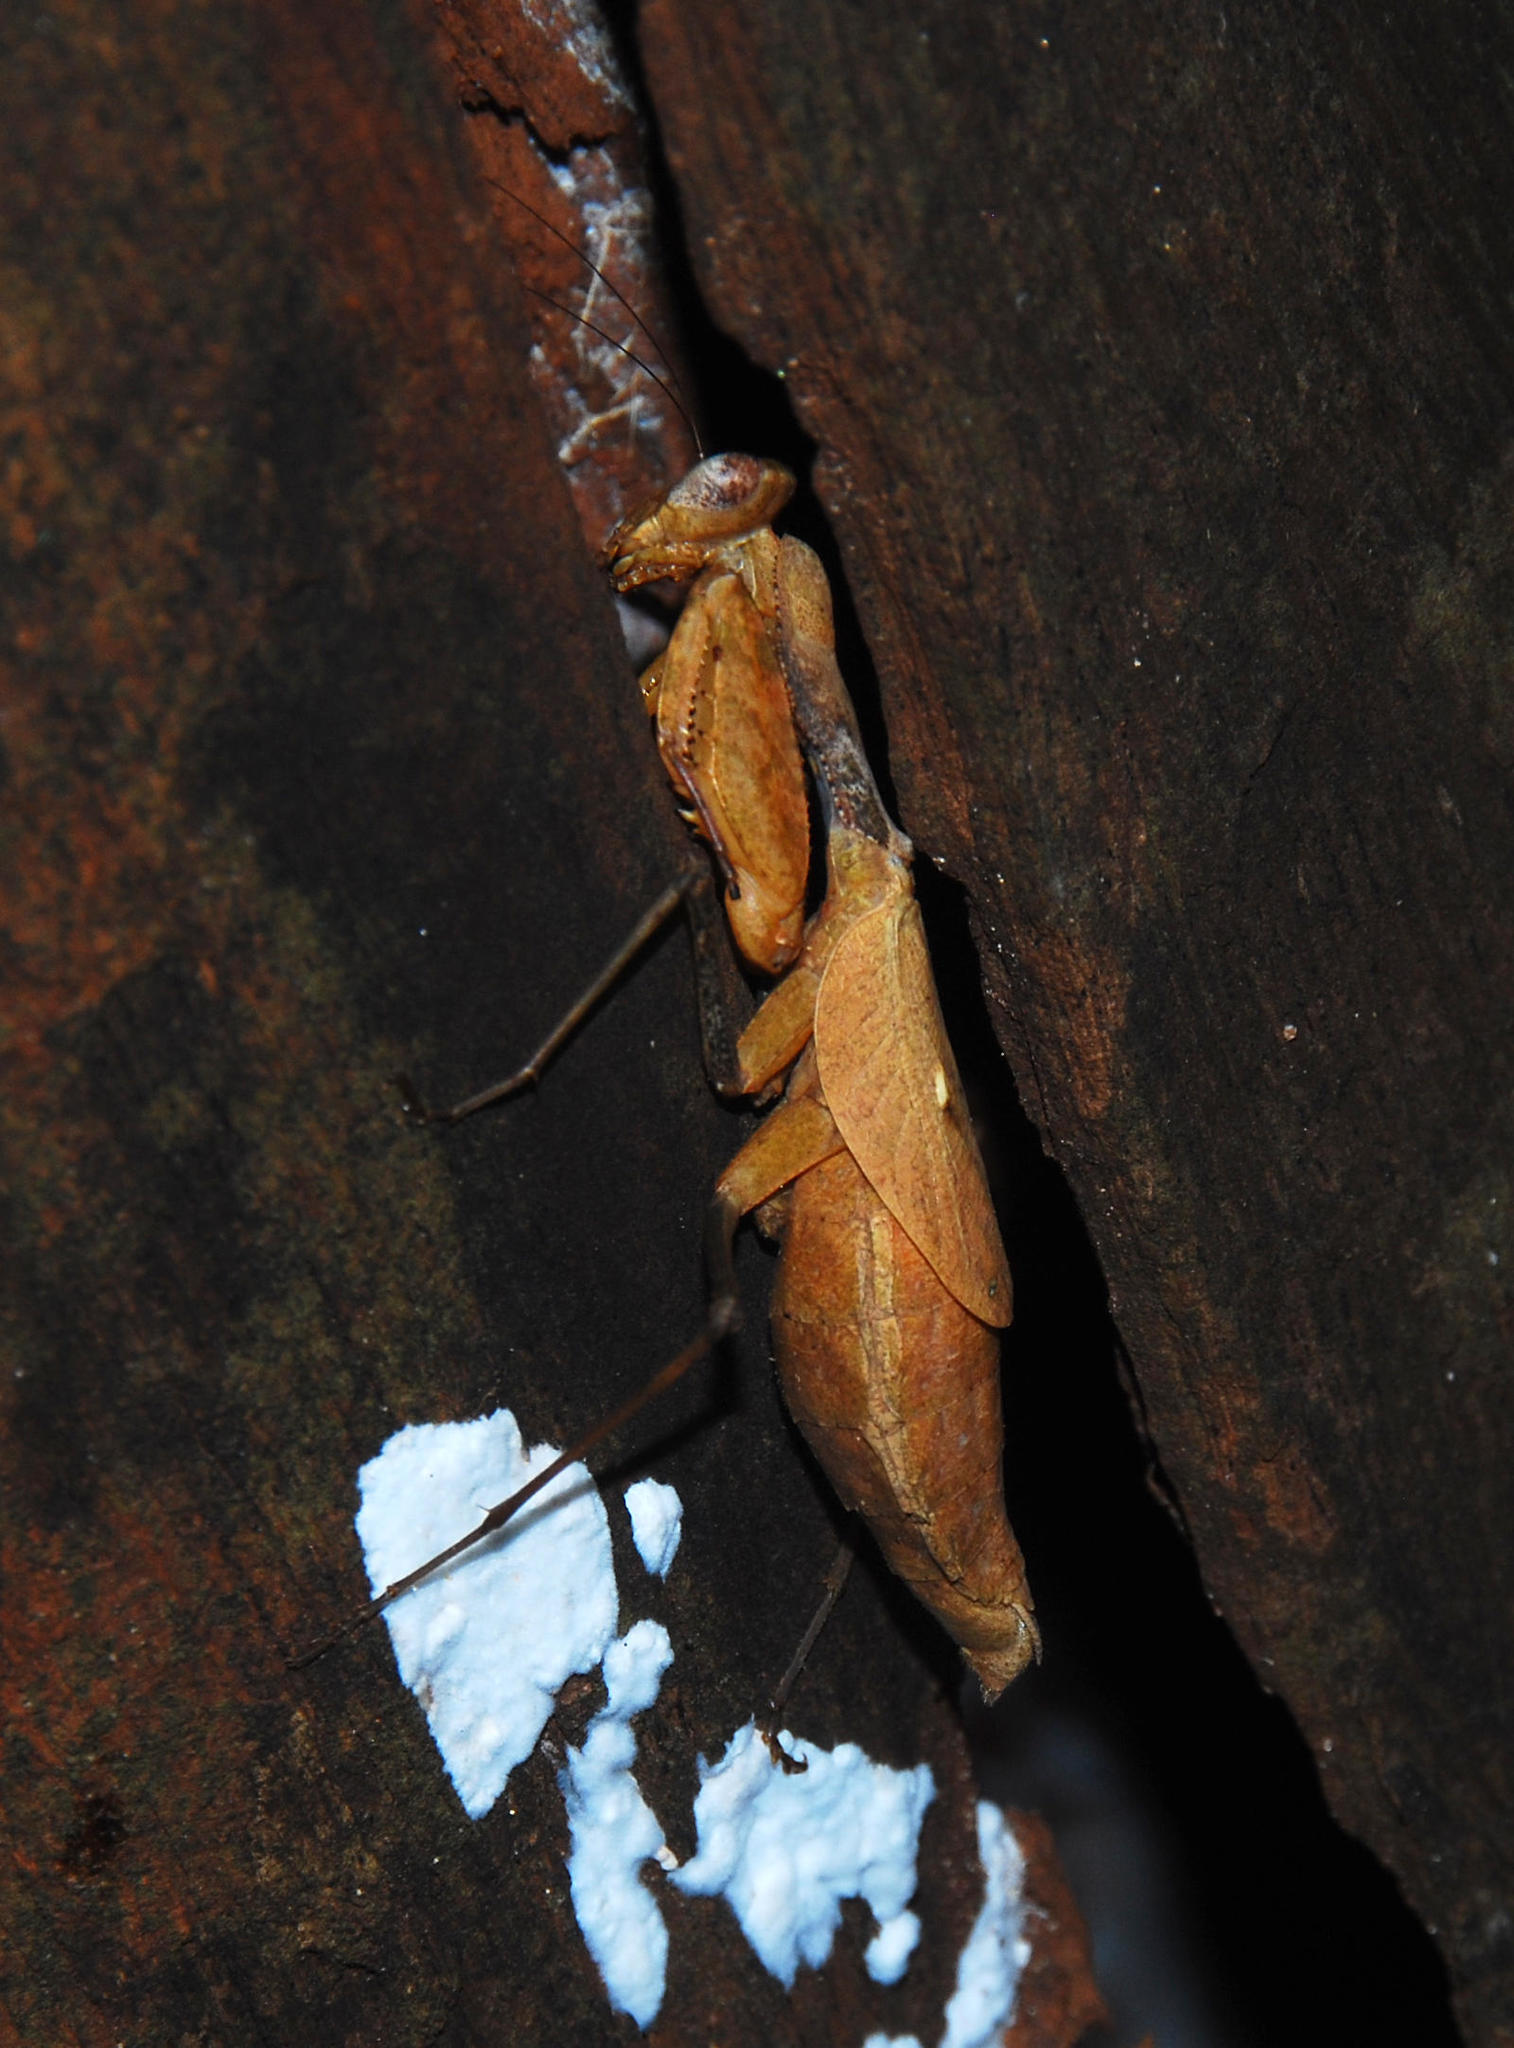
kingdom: Animalia
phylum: Arthropoda
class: Insecta
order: Mantodea
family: Chroicopteridae
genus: Dystacta
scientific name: Dystacta alticeps
